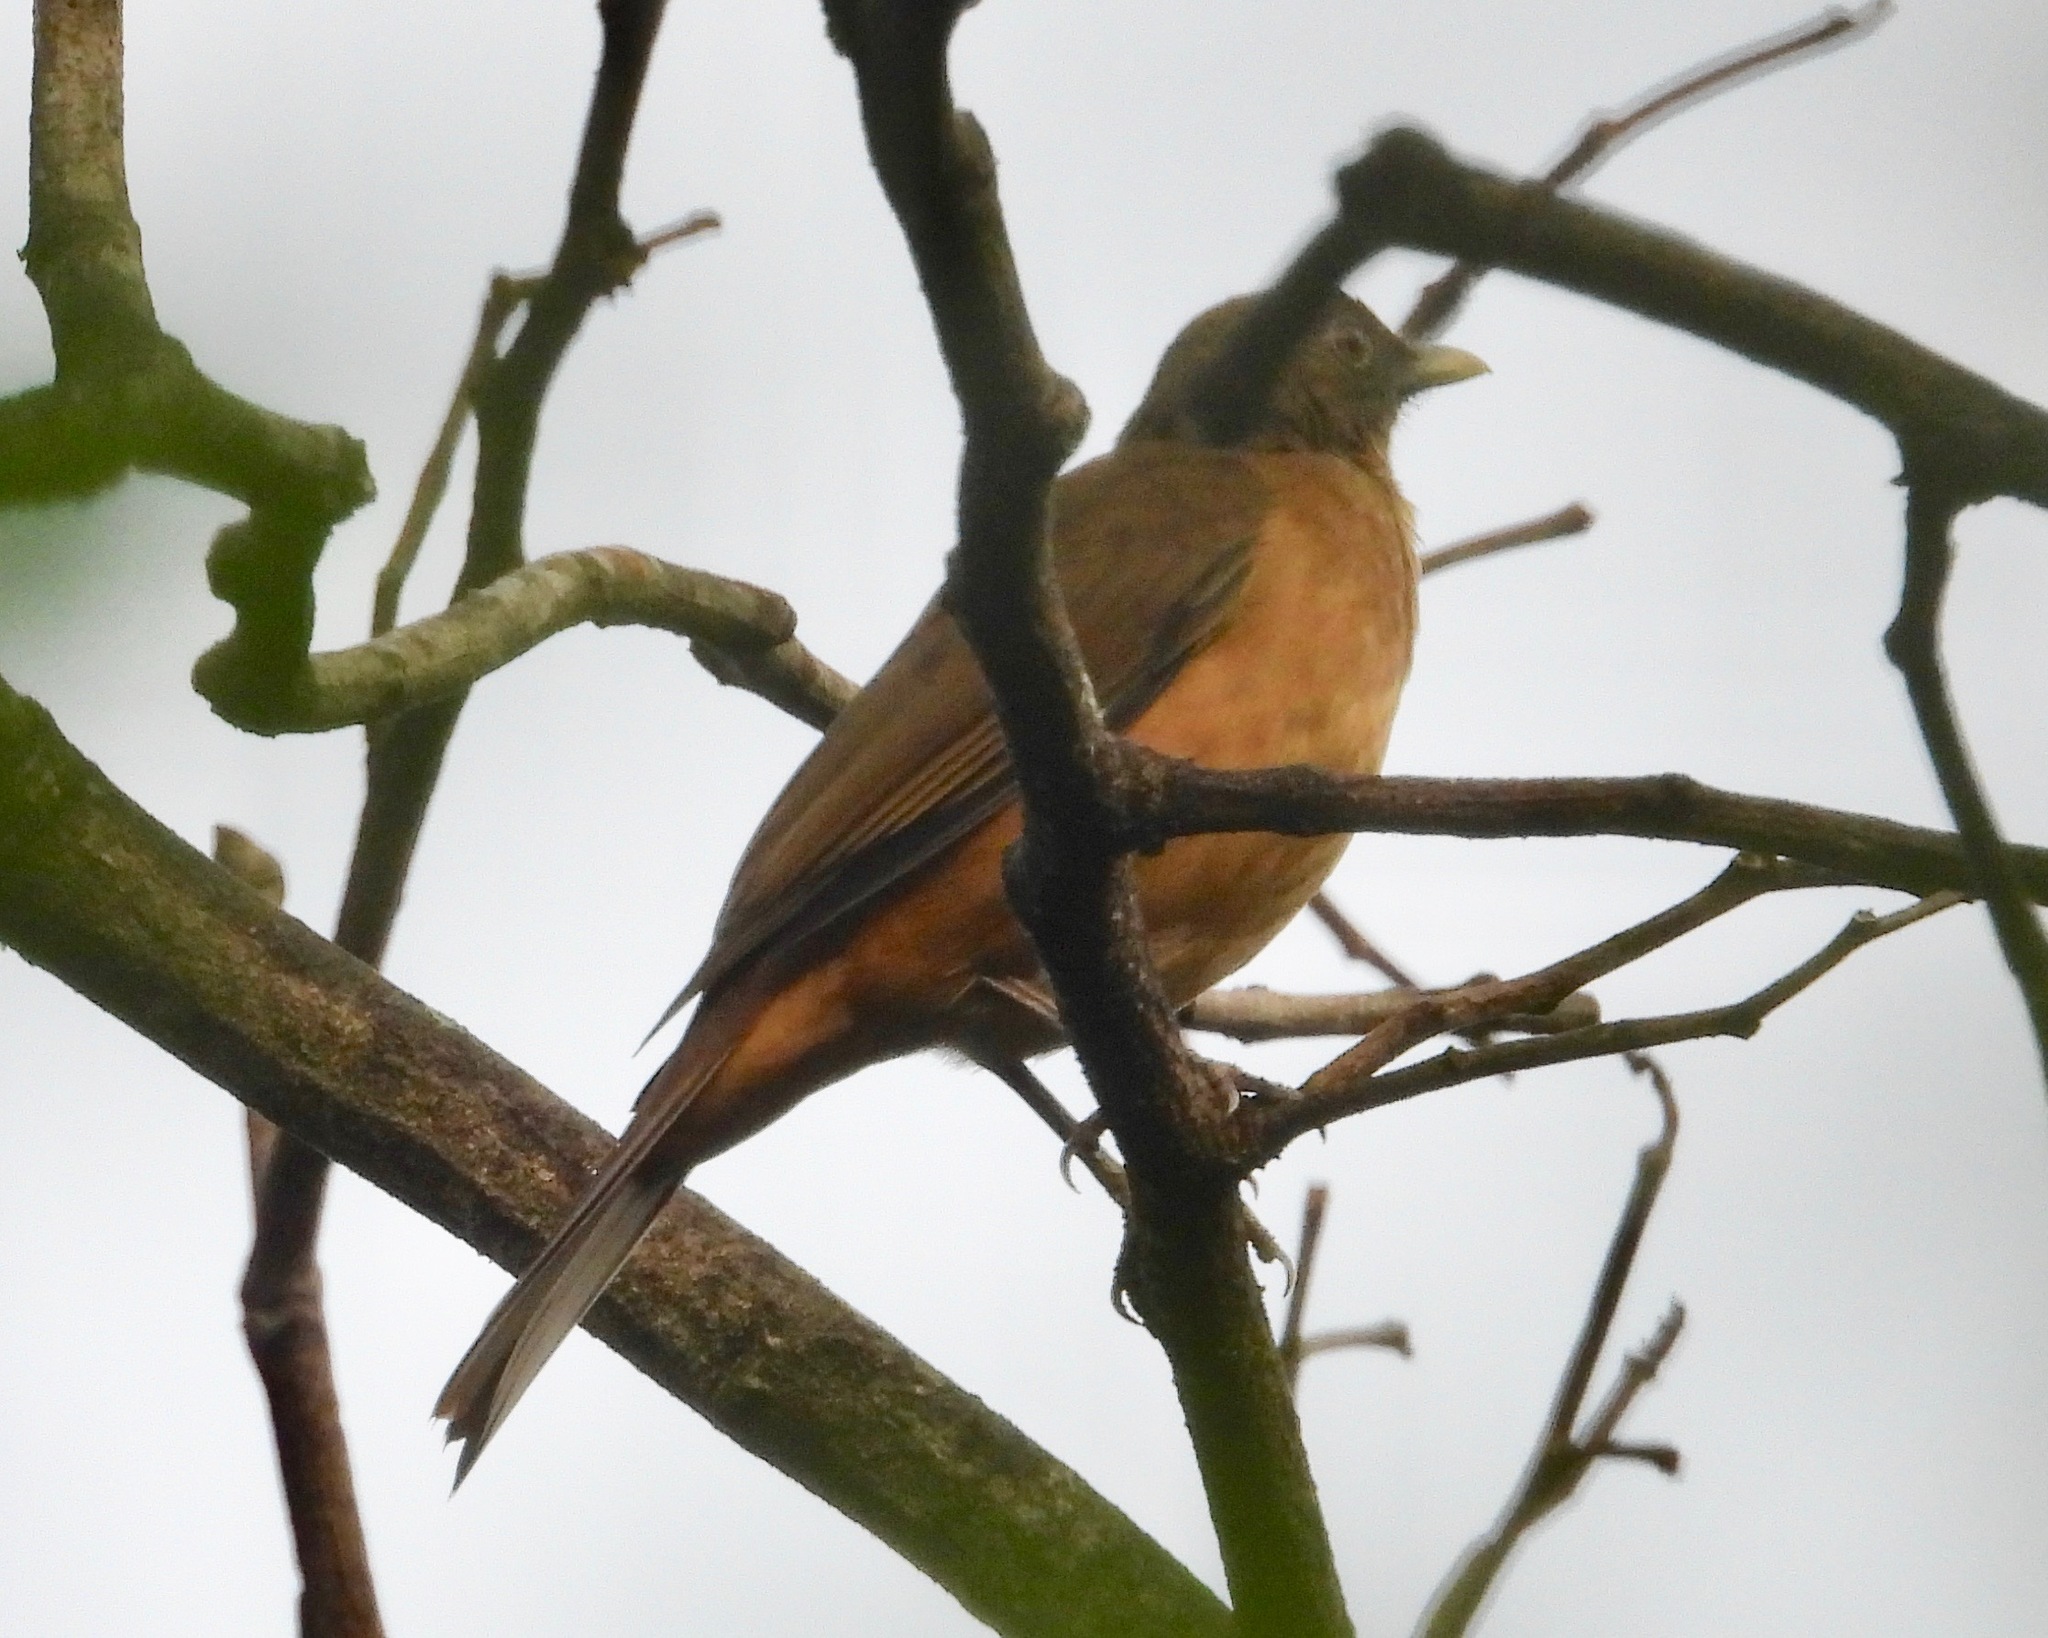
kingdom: Animalia
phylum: Chordata
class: Aves
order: Passeriformes
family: Turdidae
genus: Turdus
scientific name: Turdus grayi
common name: Clay-colored thrush
